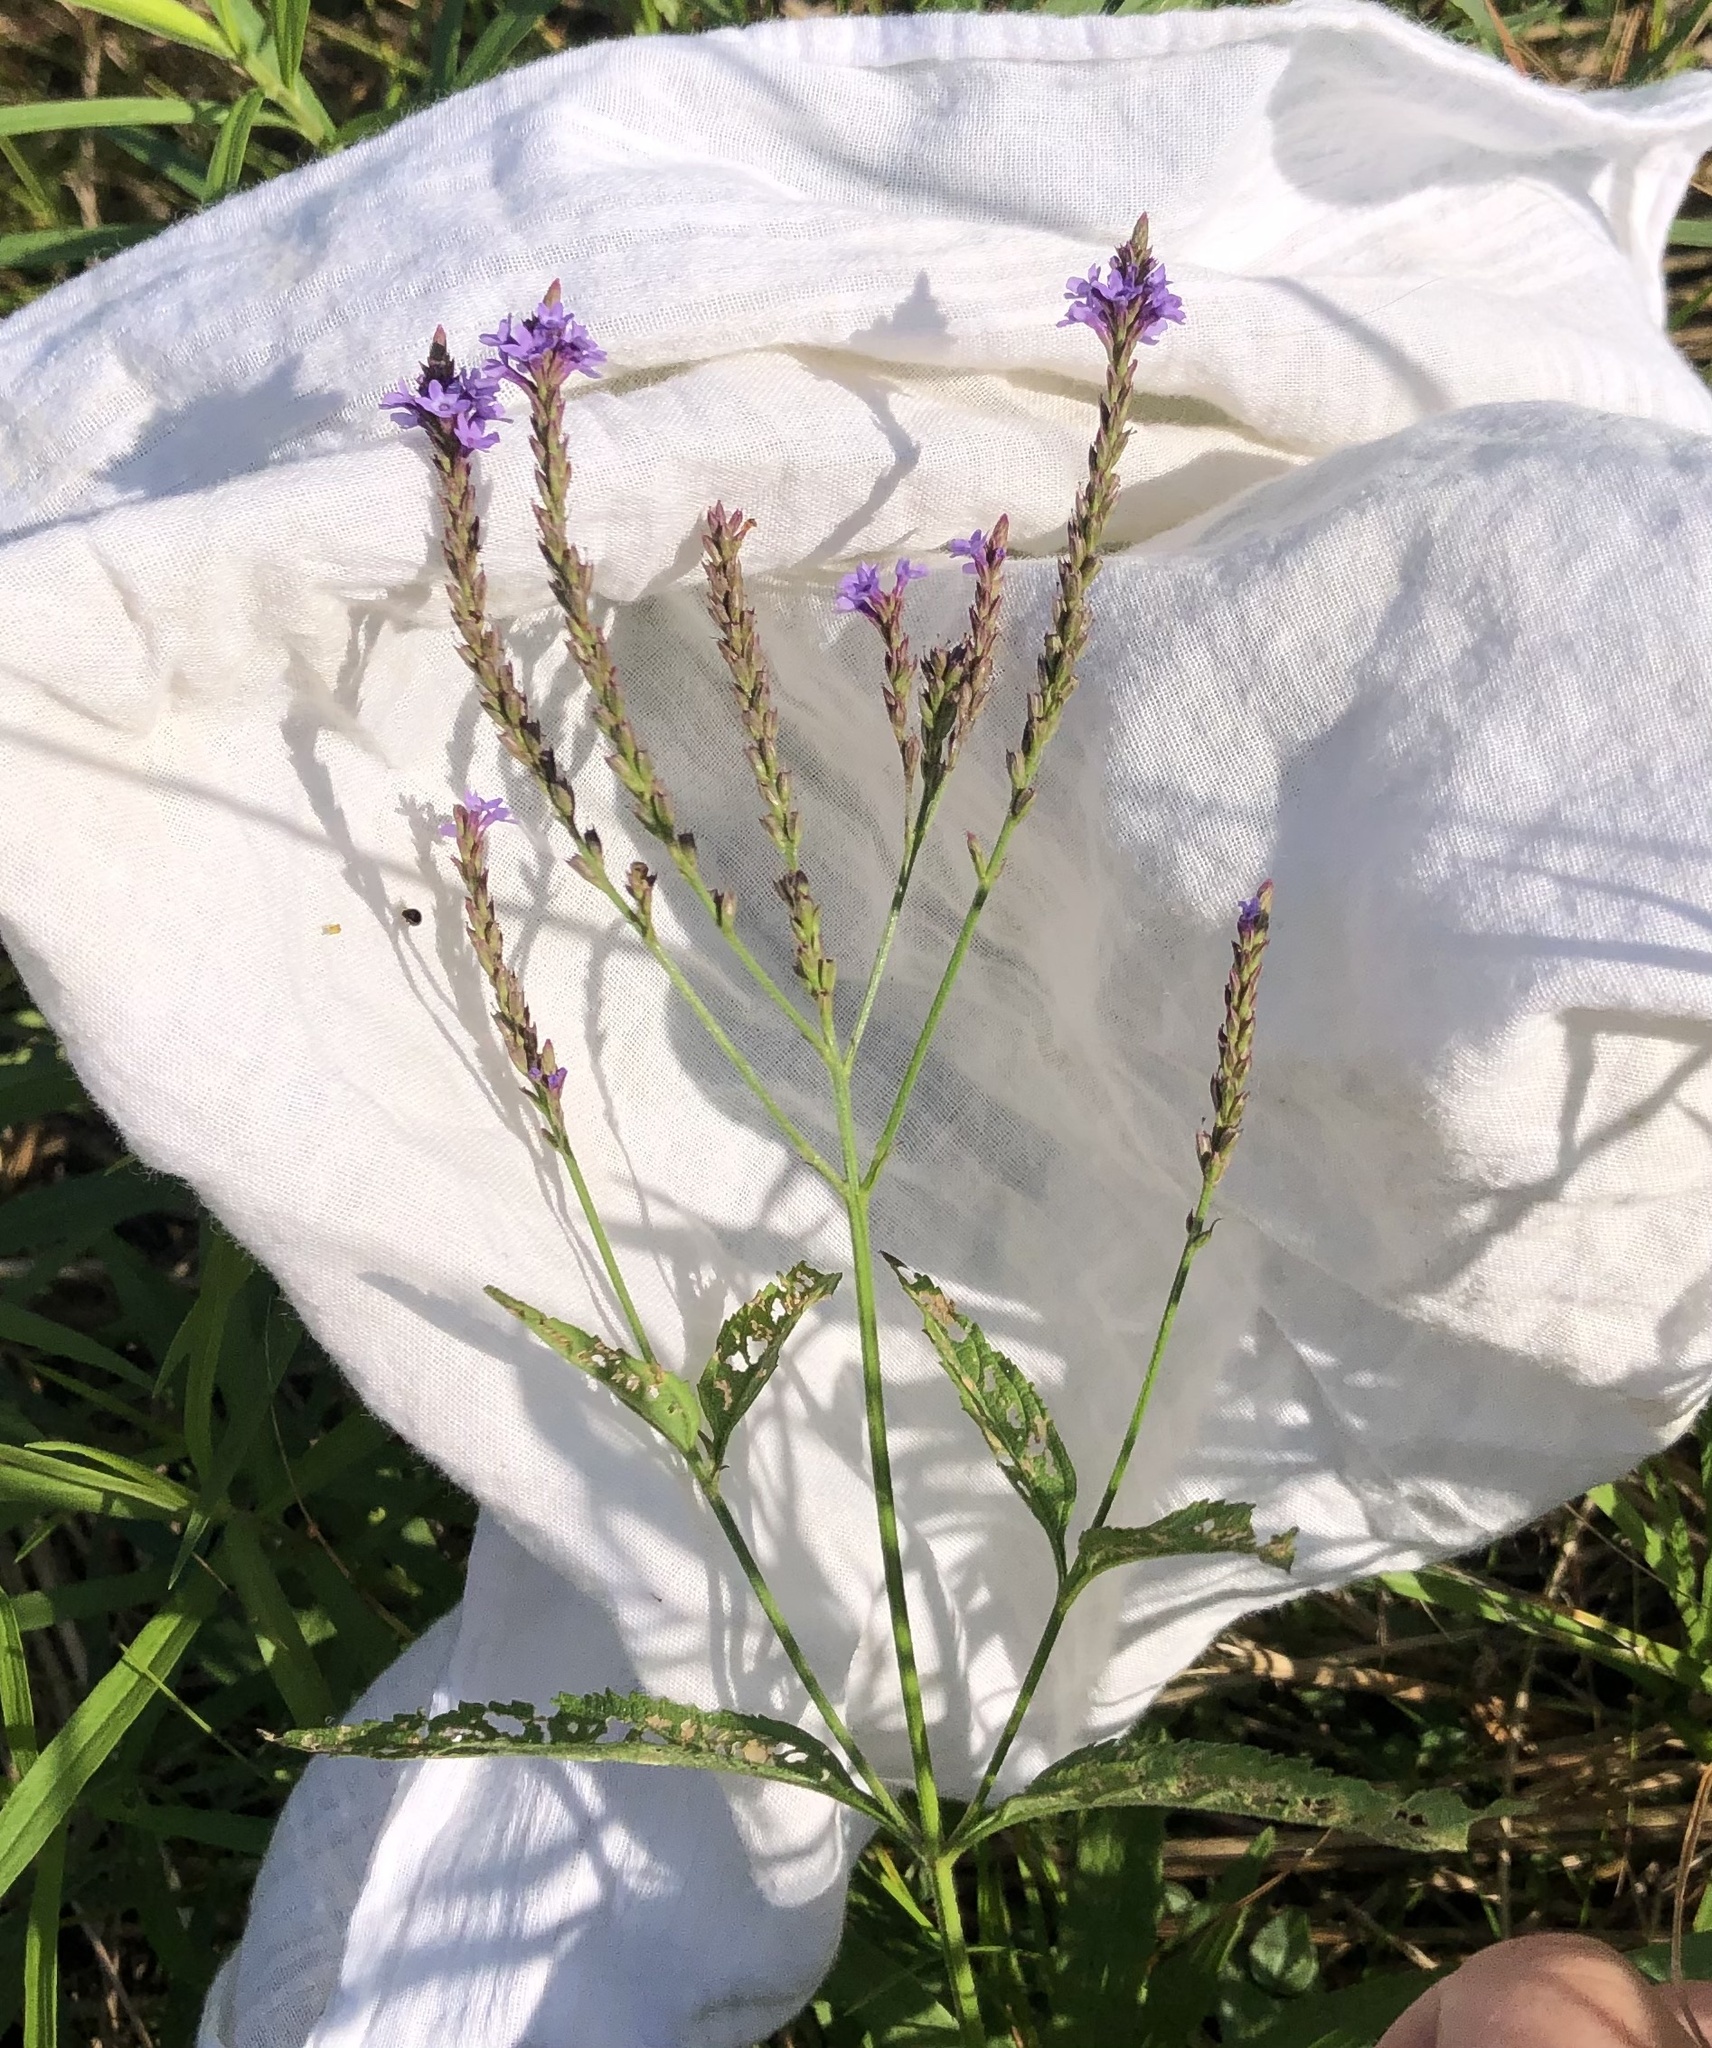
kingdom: Plantae
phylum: Tracheophyta
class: Magnoliopsida
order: Lamiales
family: Verbenaceae
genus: Verbena
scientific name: Verbena hastata
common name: American blue vervain
